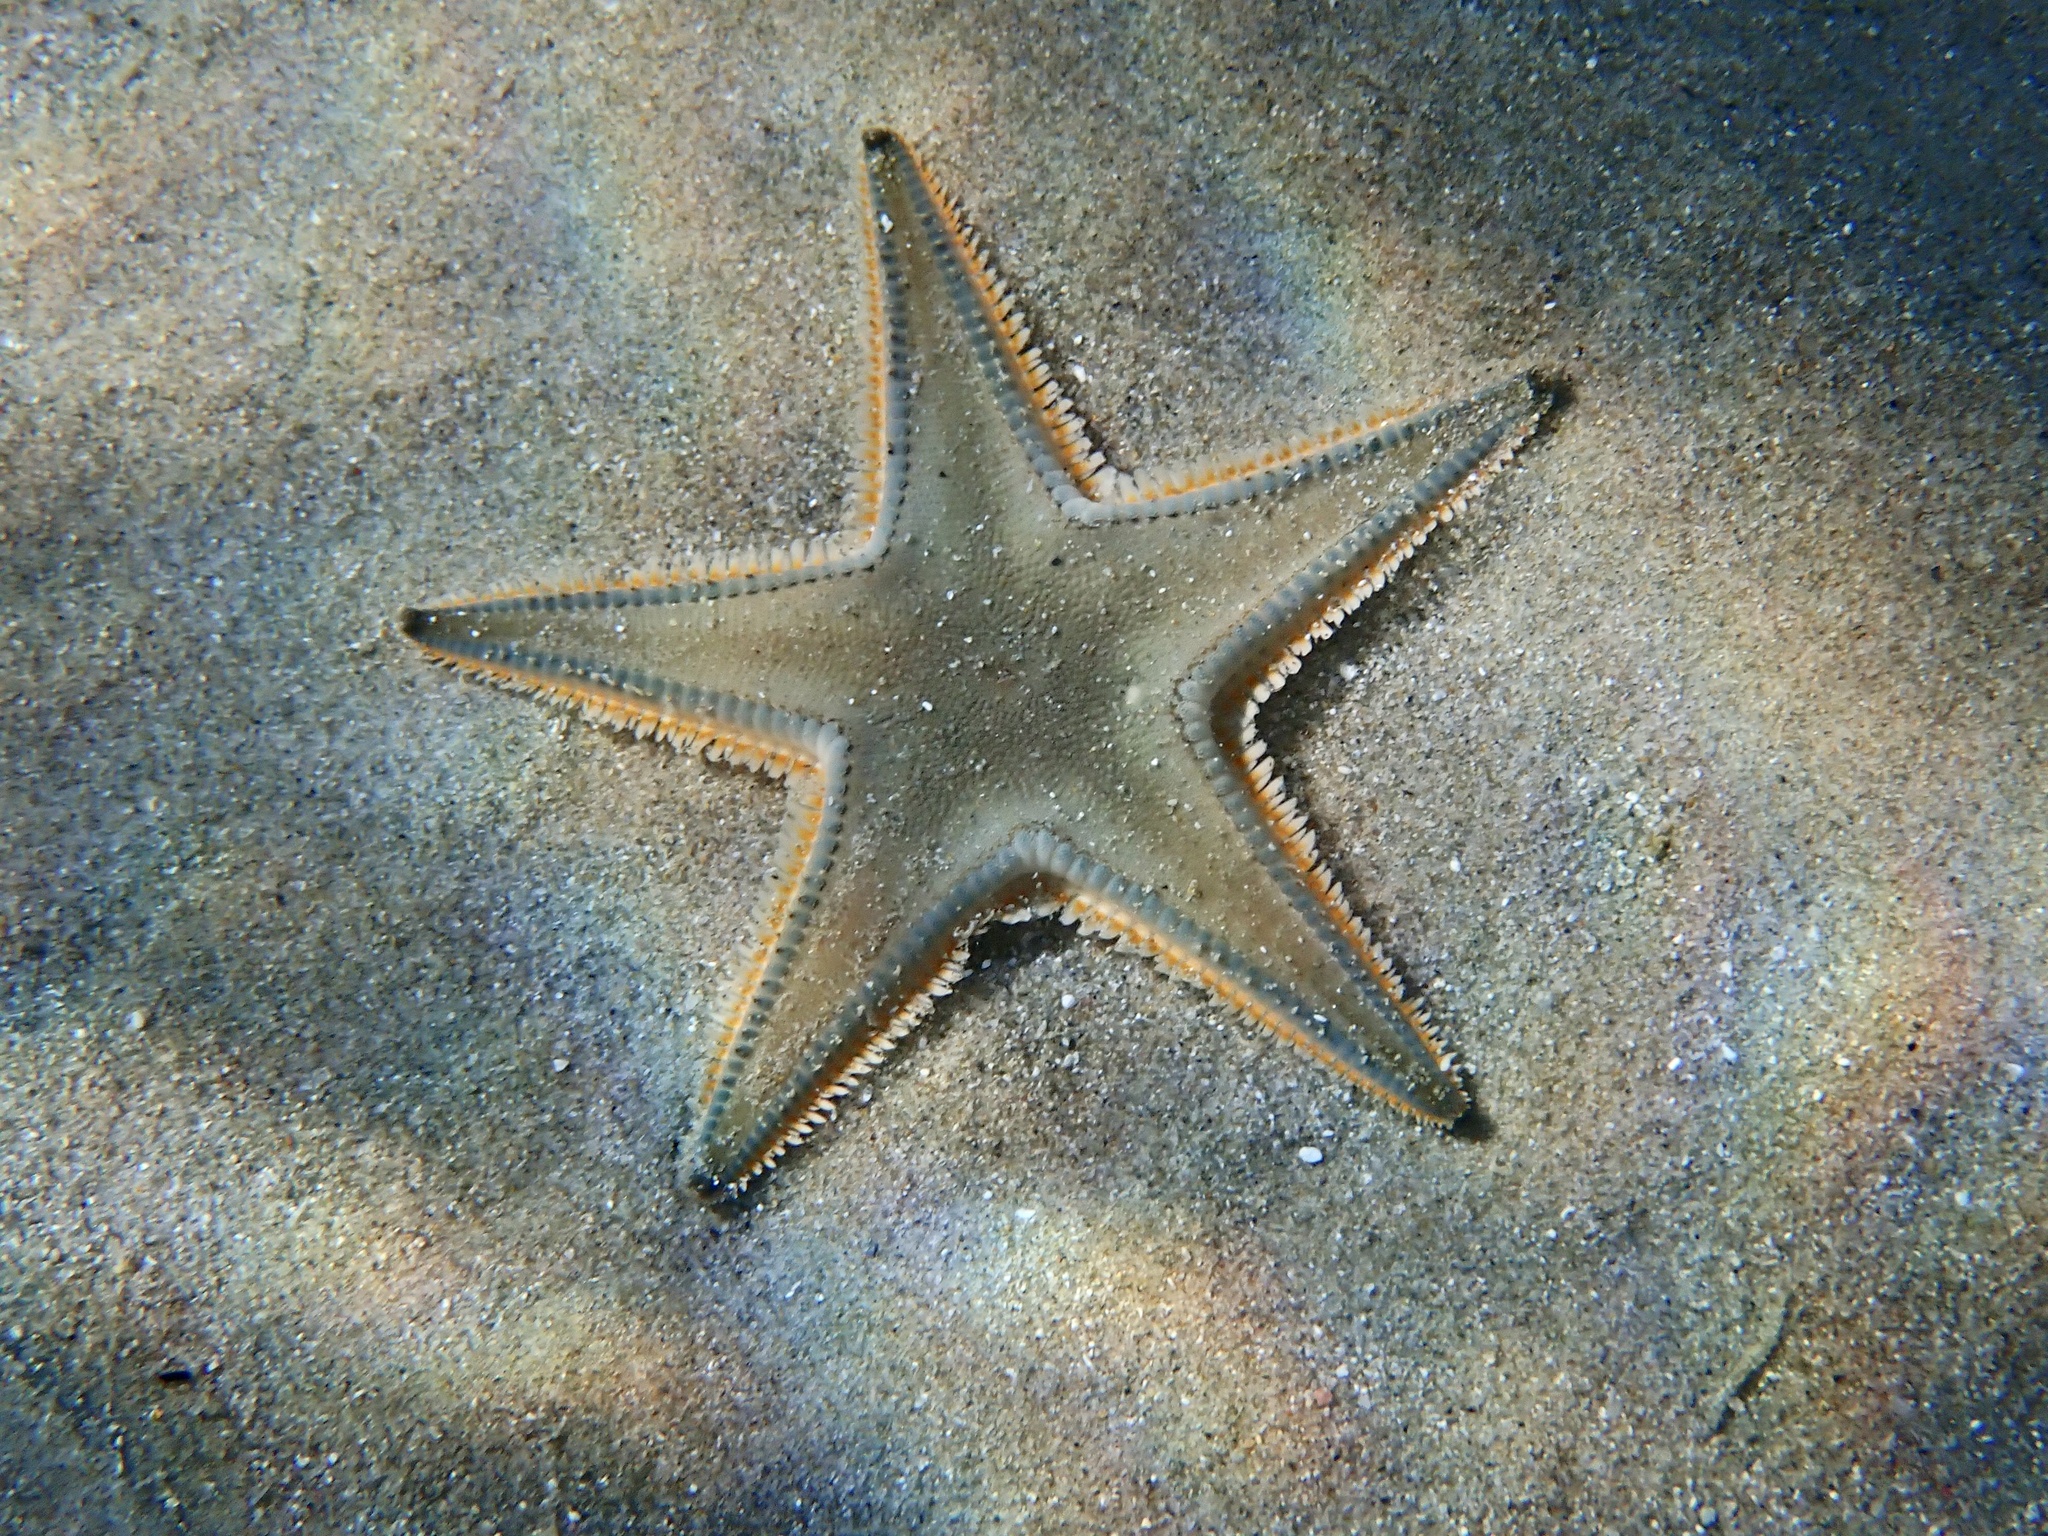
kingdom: Animalia
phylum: Echinodermata
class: Asteroidea
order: Paxillosida
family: Astropectinidae
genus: Astropecten
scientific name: Astropecten jonstoni
